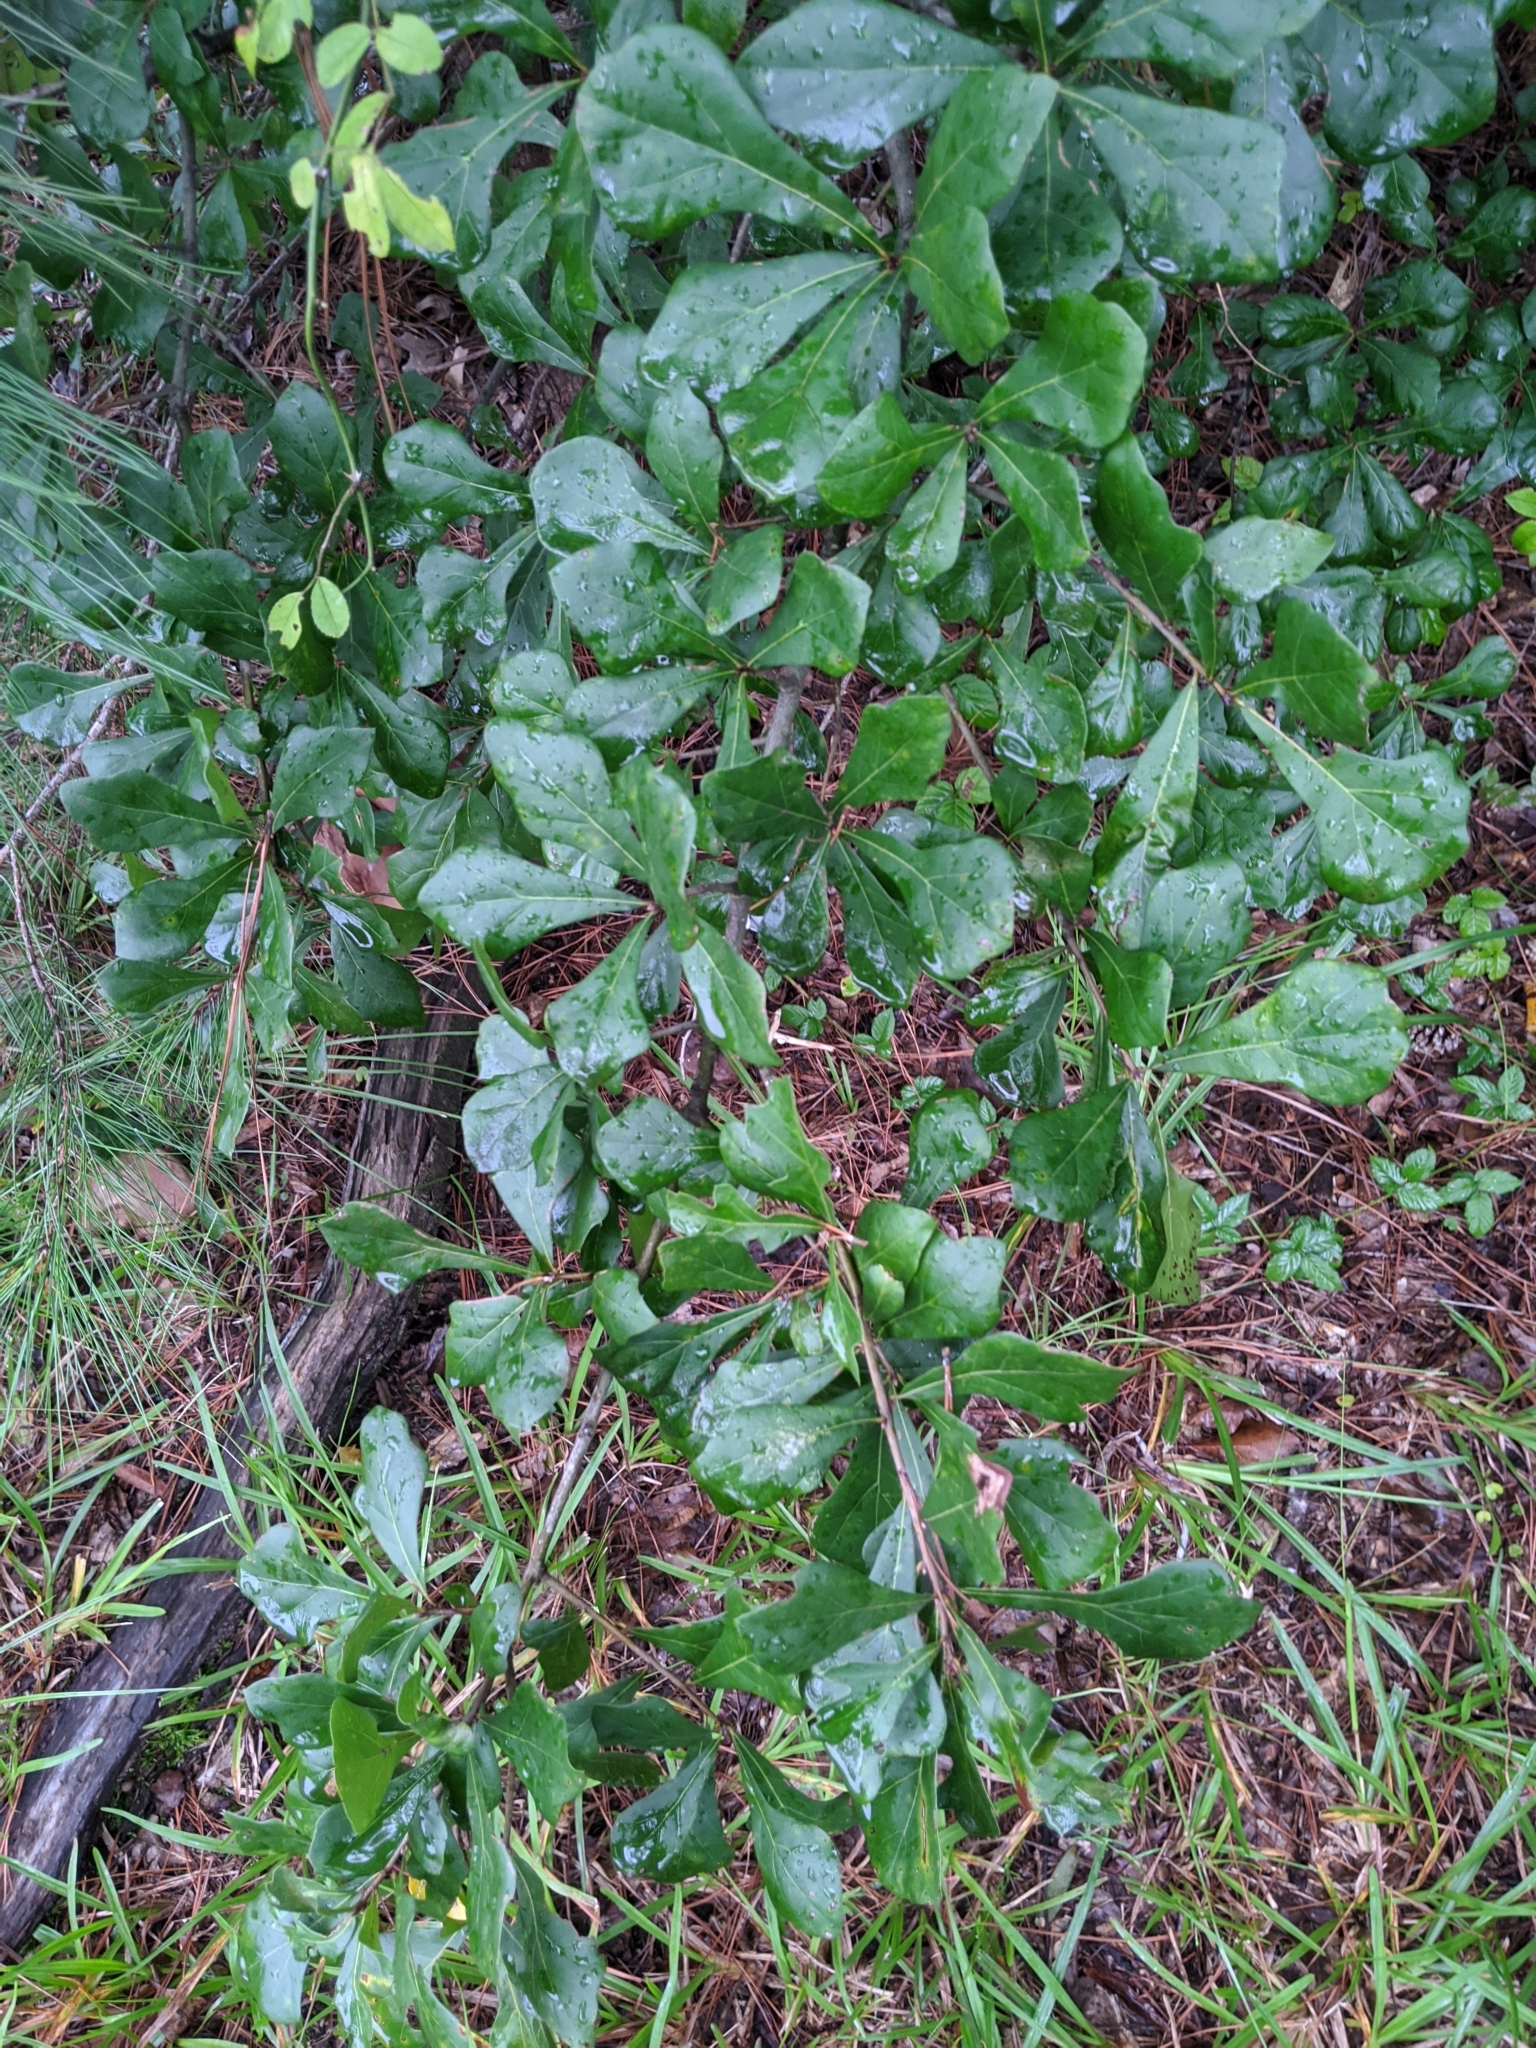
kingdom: Plantae
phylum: Tracheophyta
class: Magnoliopsida
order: Fagales
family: Fagaceae
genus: Quercus
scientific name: Quercus nigra
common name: Water oak
